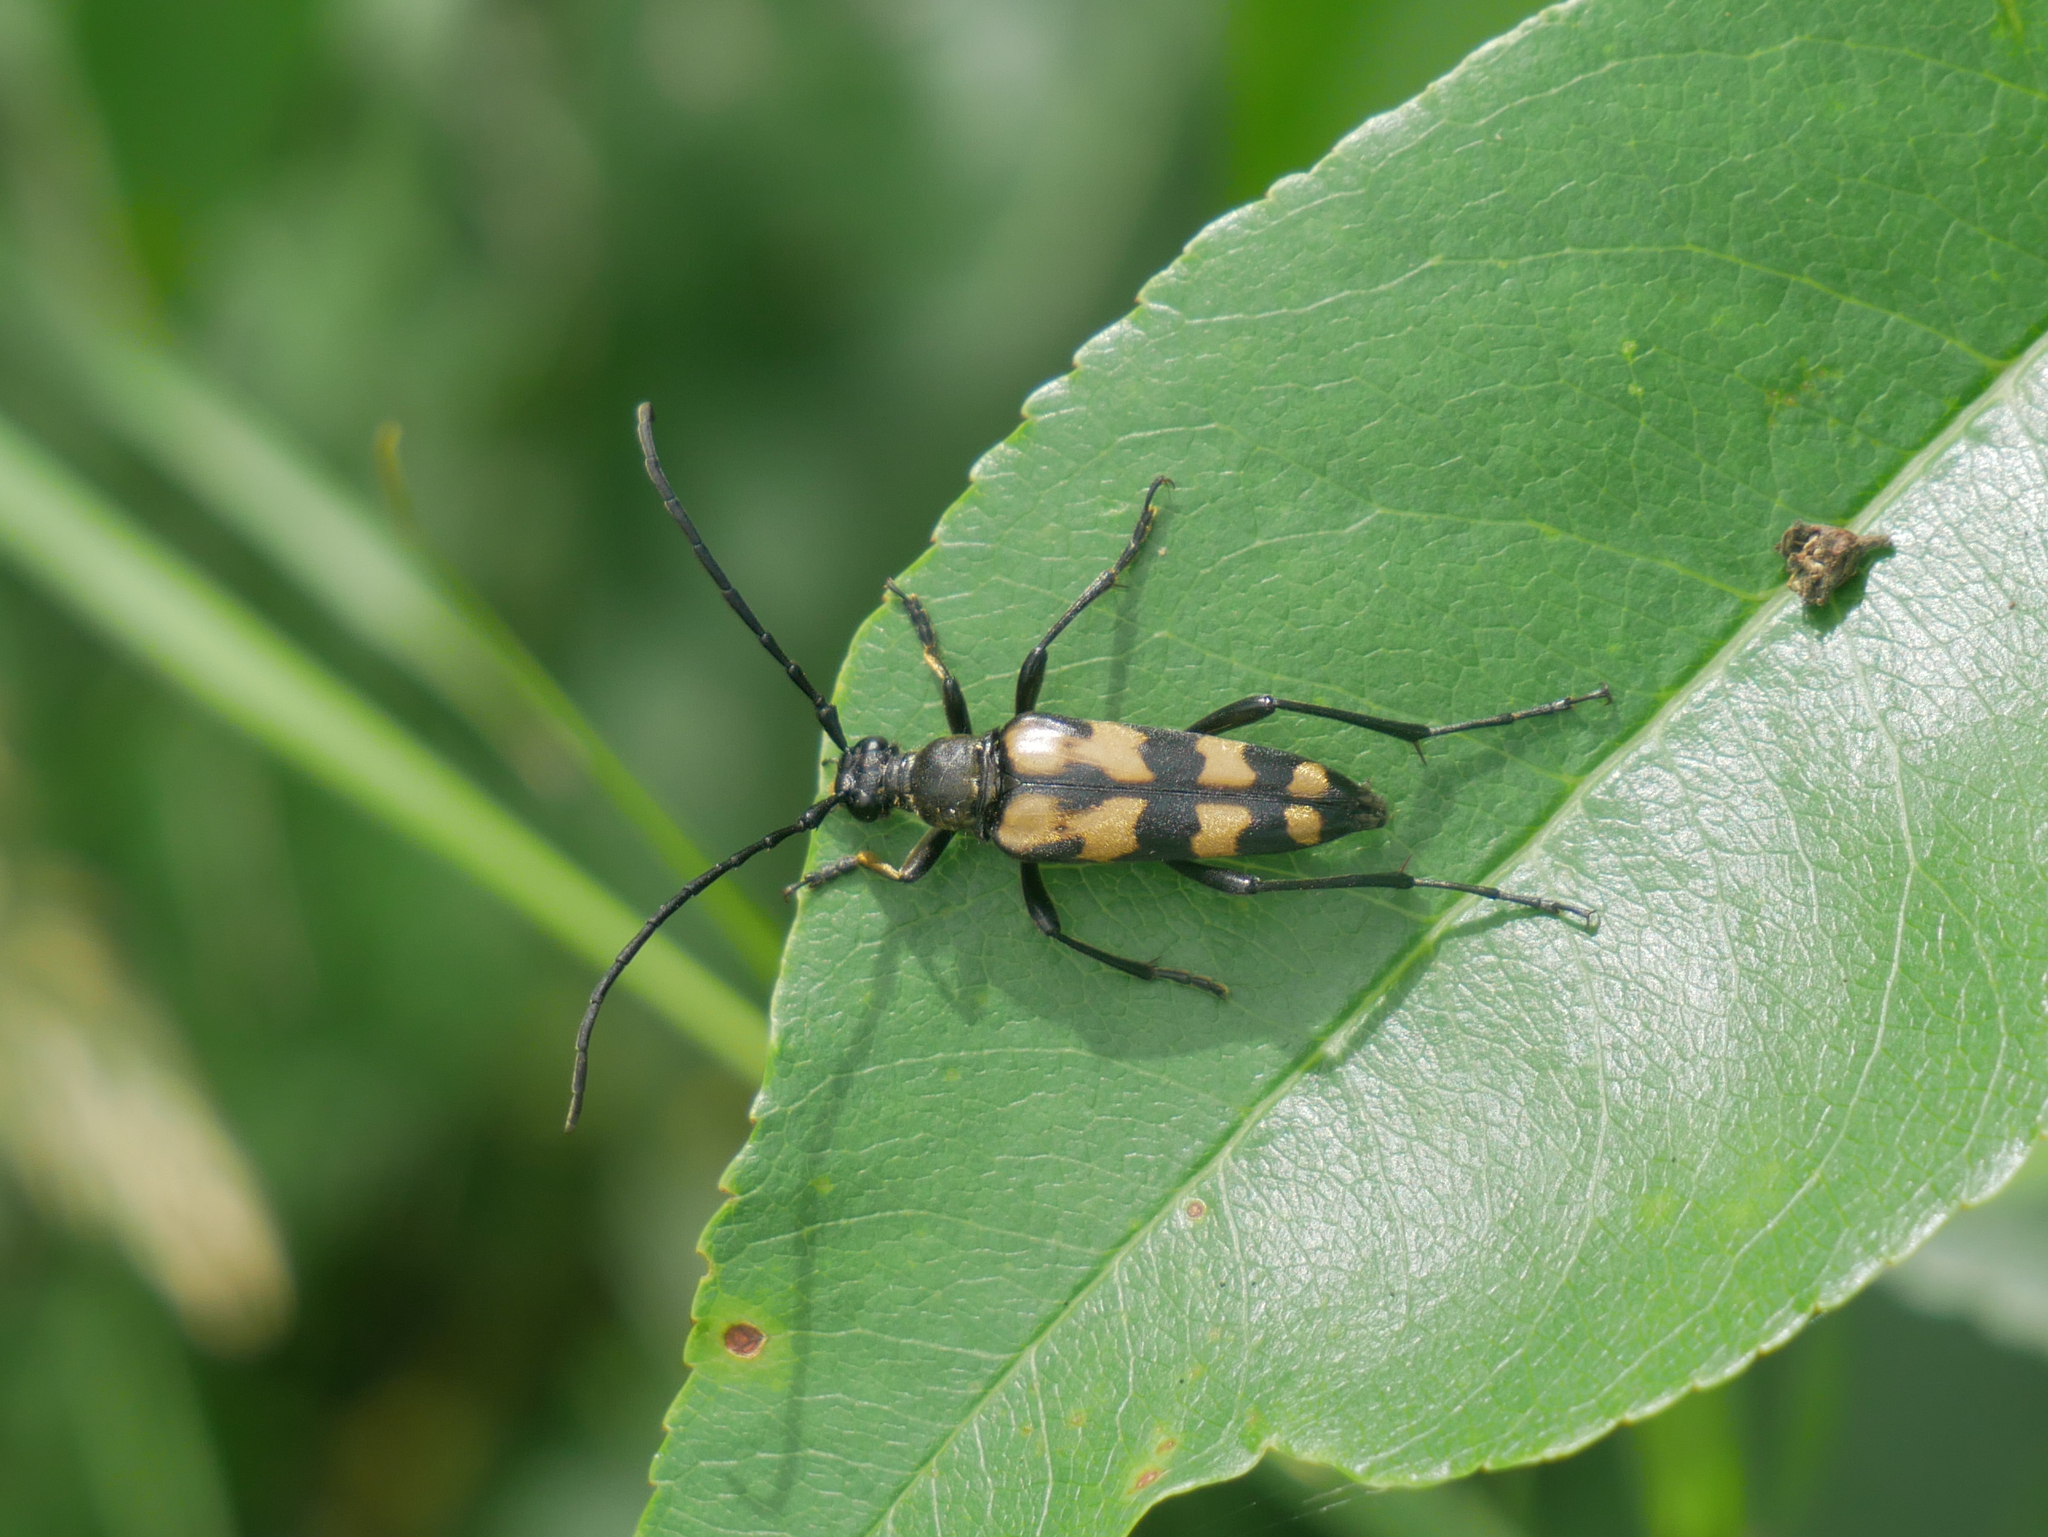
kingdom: Animalia
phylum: Arthropoda
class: Insecta
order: Coleoptera
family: Cerambycidae
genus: Leptura
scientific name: Leptura quadrifasciata
